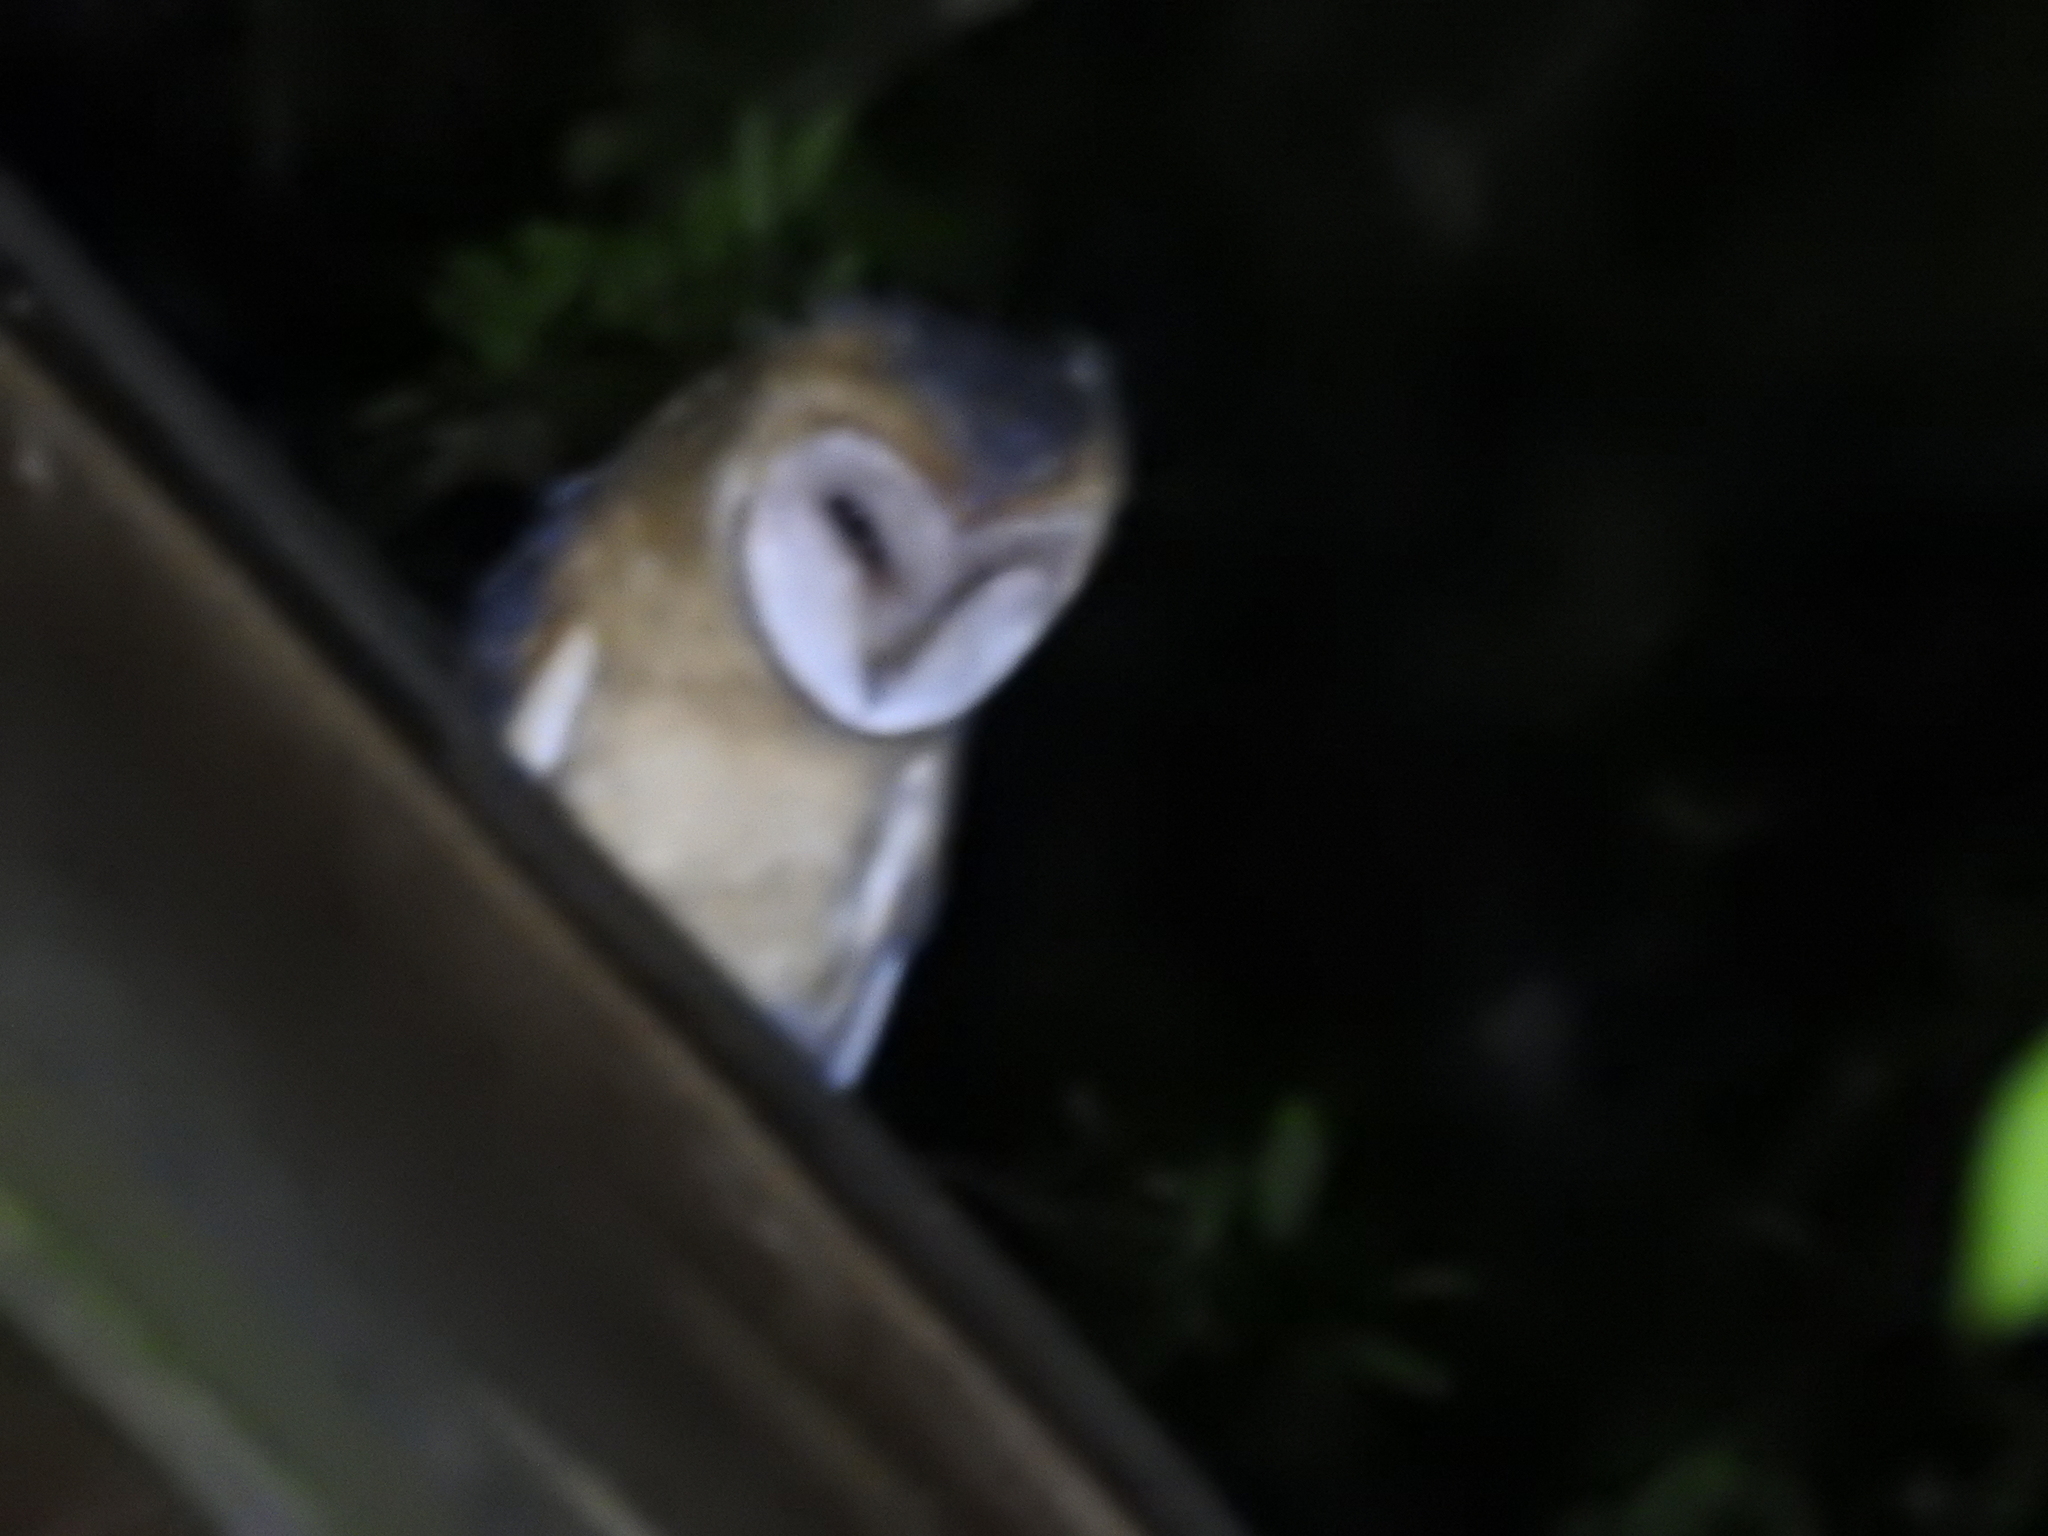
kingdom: Animalia
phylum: Chordata
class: Aves
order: Strigiformes
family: Tytonidae
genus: Tyto
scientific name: Tyto furcata
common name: American barn owl
